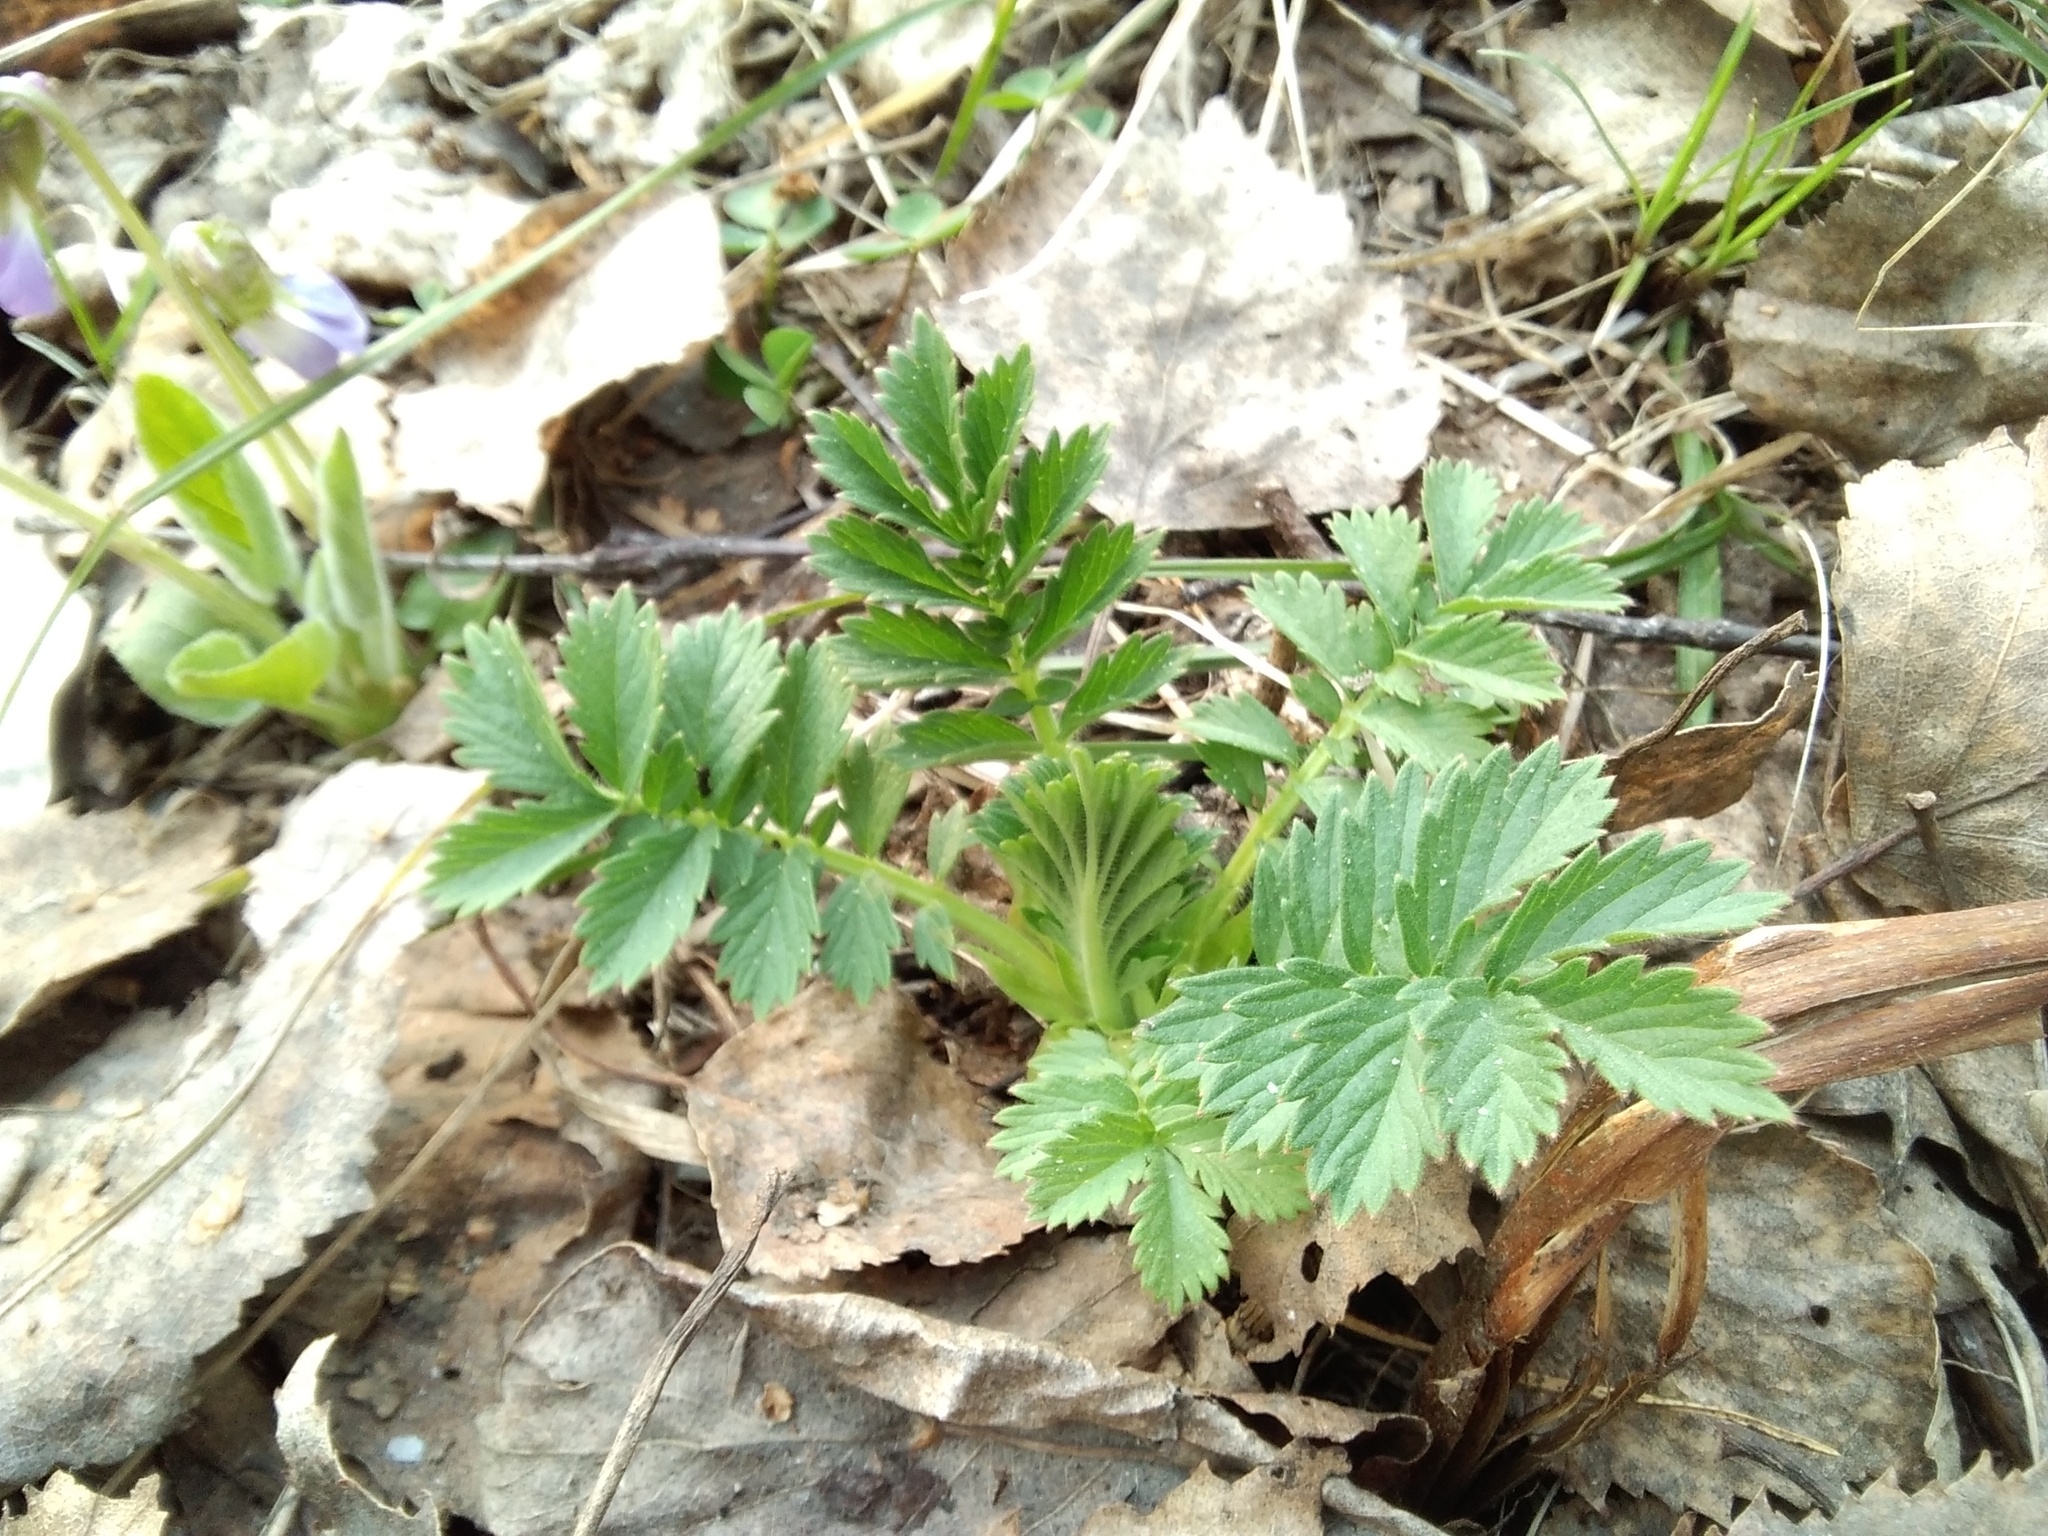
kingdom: Plantae
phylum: Tracheophyta
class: Magnoliopsida
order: Rosales
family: Rosaceae
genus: Agrimonia
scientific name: Agrimonia pilosa
